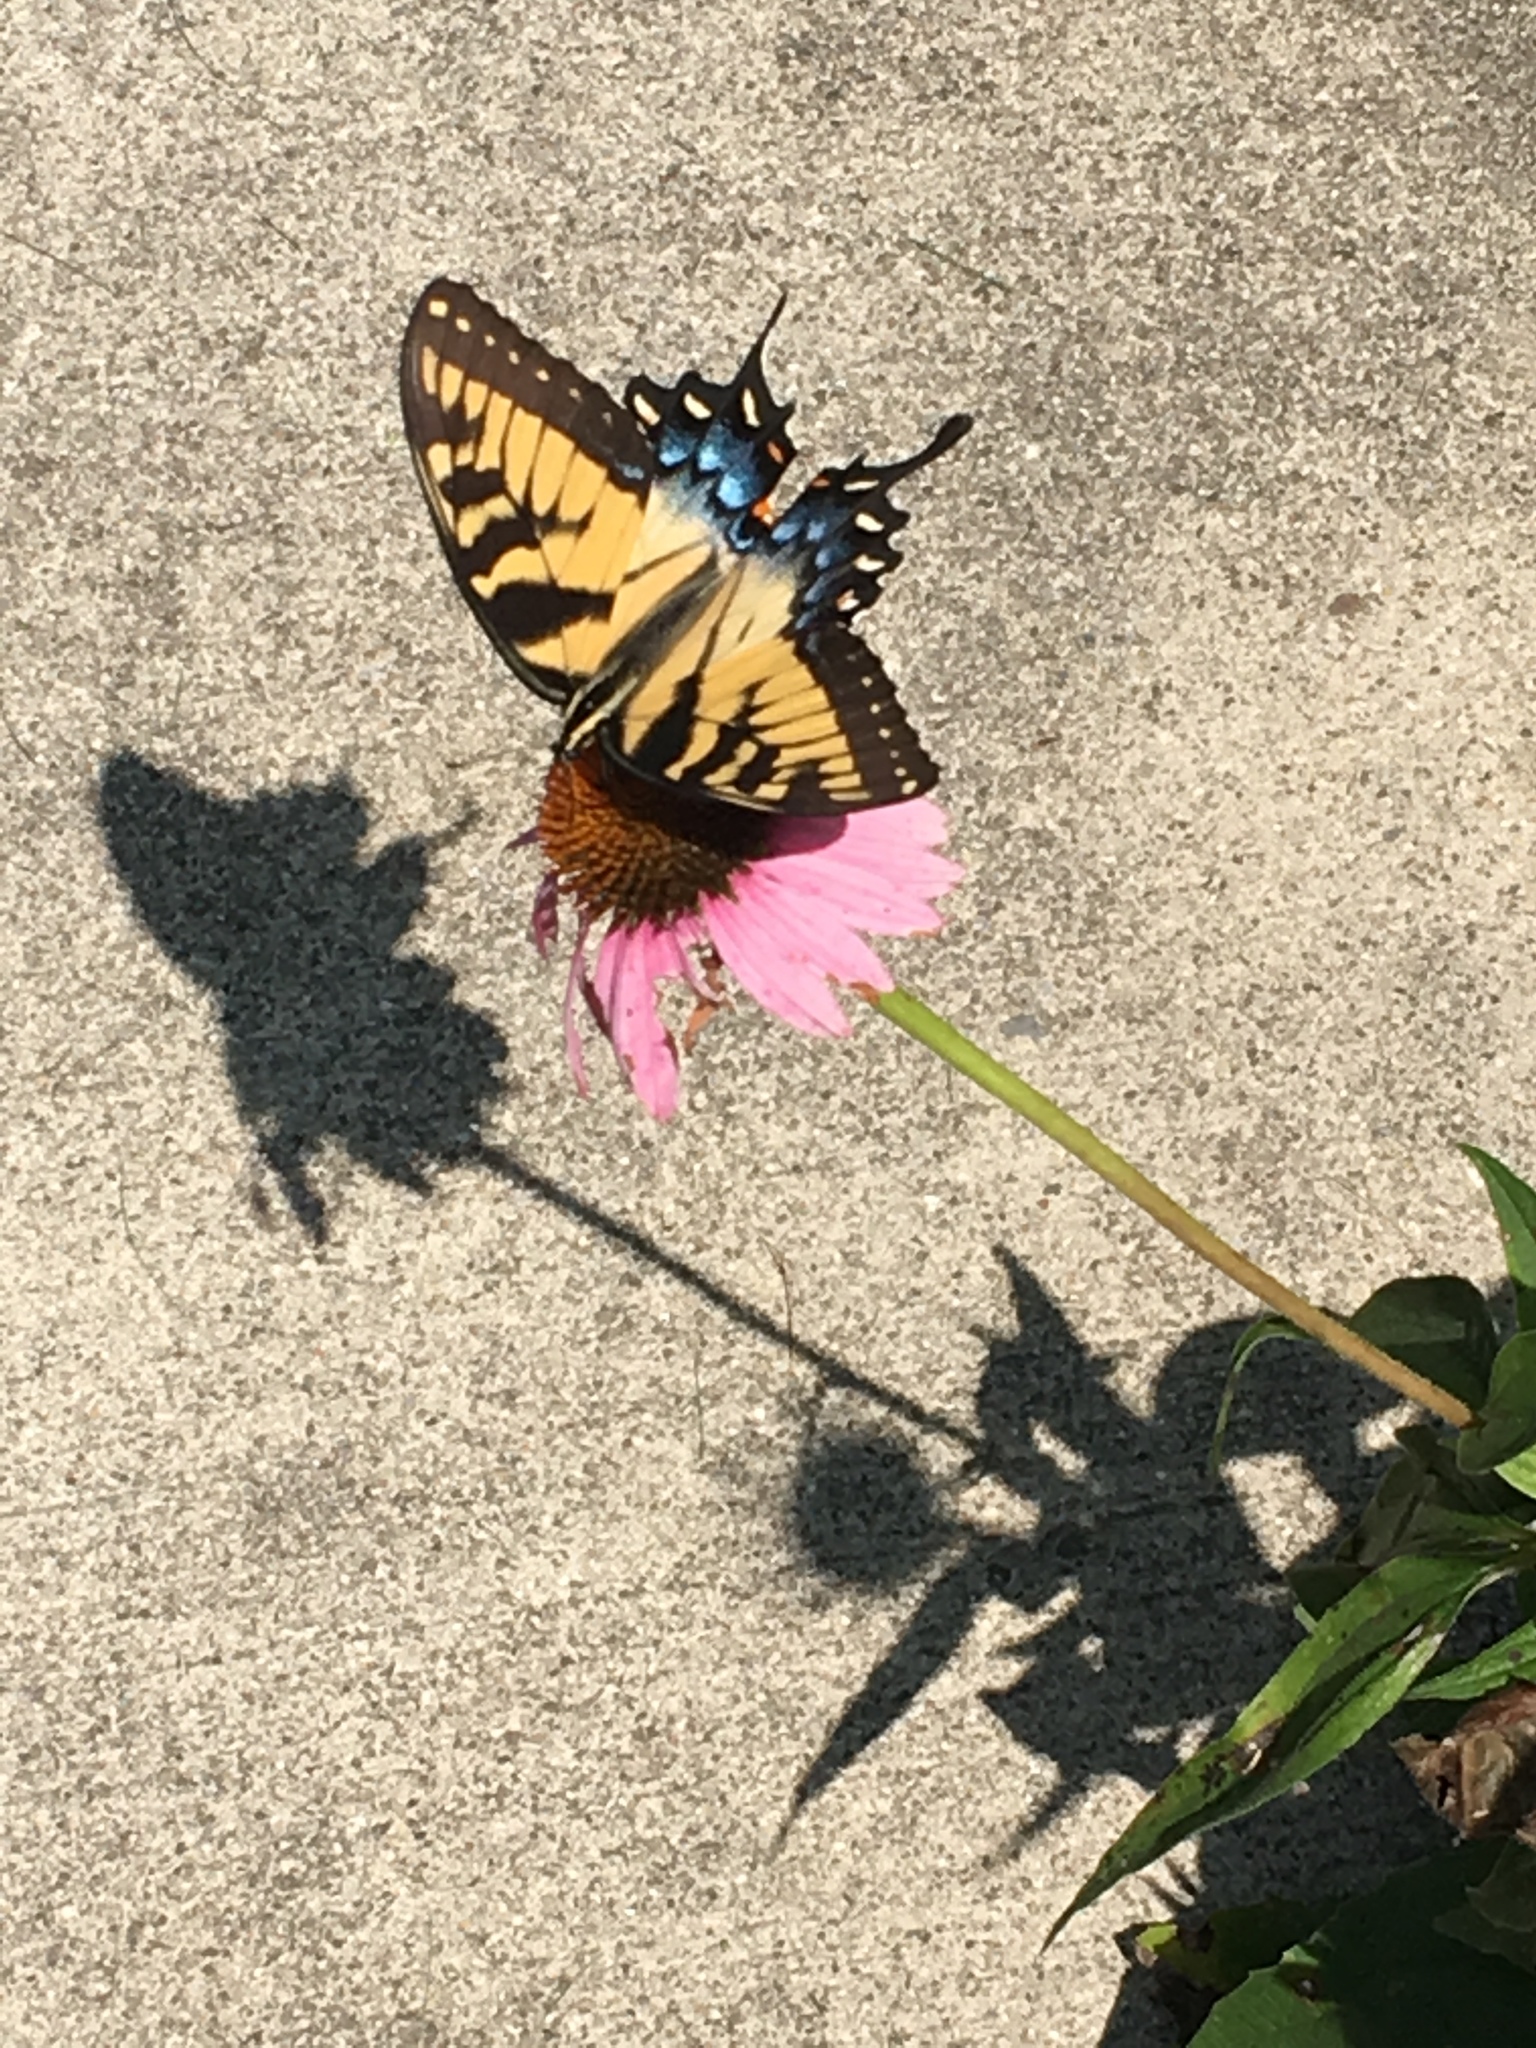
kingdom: Animalia
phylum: Arthropoda
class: Insecta
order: Lepidoptera
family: Papilionidae
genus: Papilio
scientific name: Papilio glaucus
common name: Tiger swallowtail
